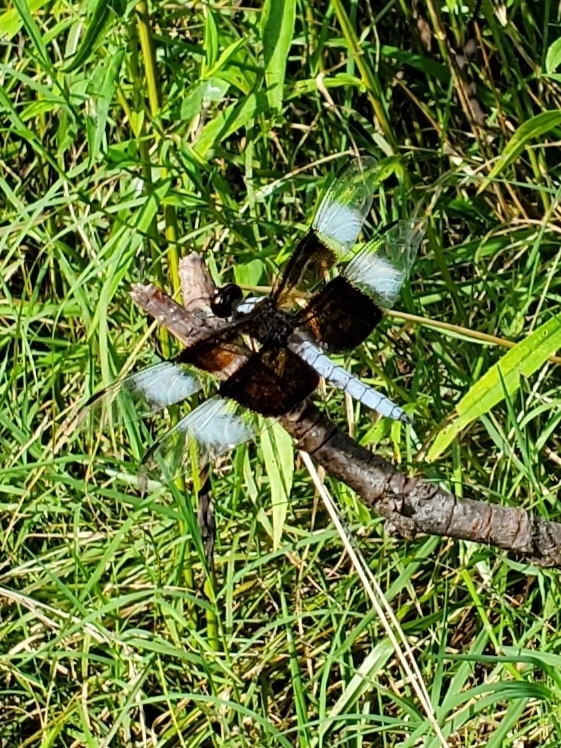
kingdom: Animalia
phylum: Arthropoda
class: Insecta
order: Odonata
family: Libellulidae
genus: Libellula
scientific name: Libellula luctuosa
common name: Widow skimmer
